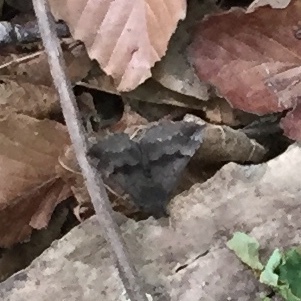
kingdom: Animalia
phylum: Arthropoda
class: Insecta
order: Lepidoptera
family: Erebidae
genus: Hypena
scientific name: Hypena madefactalis
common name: Gray-edged snout
